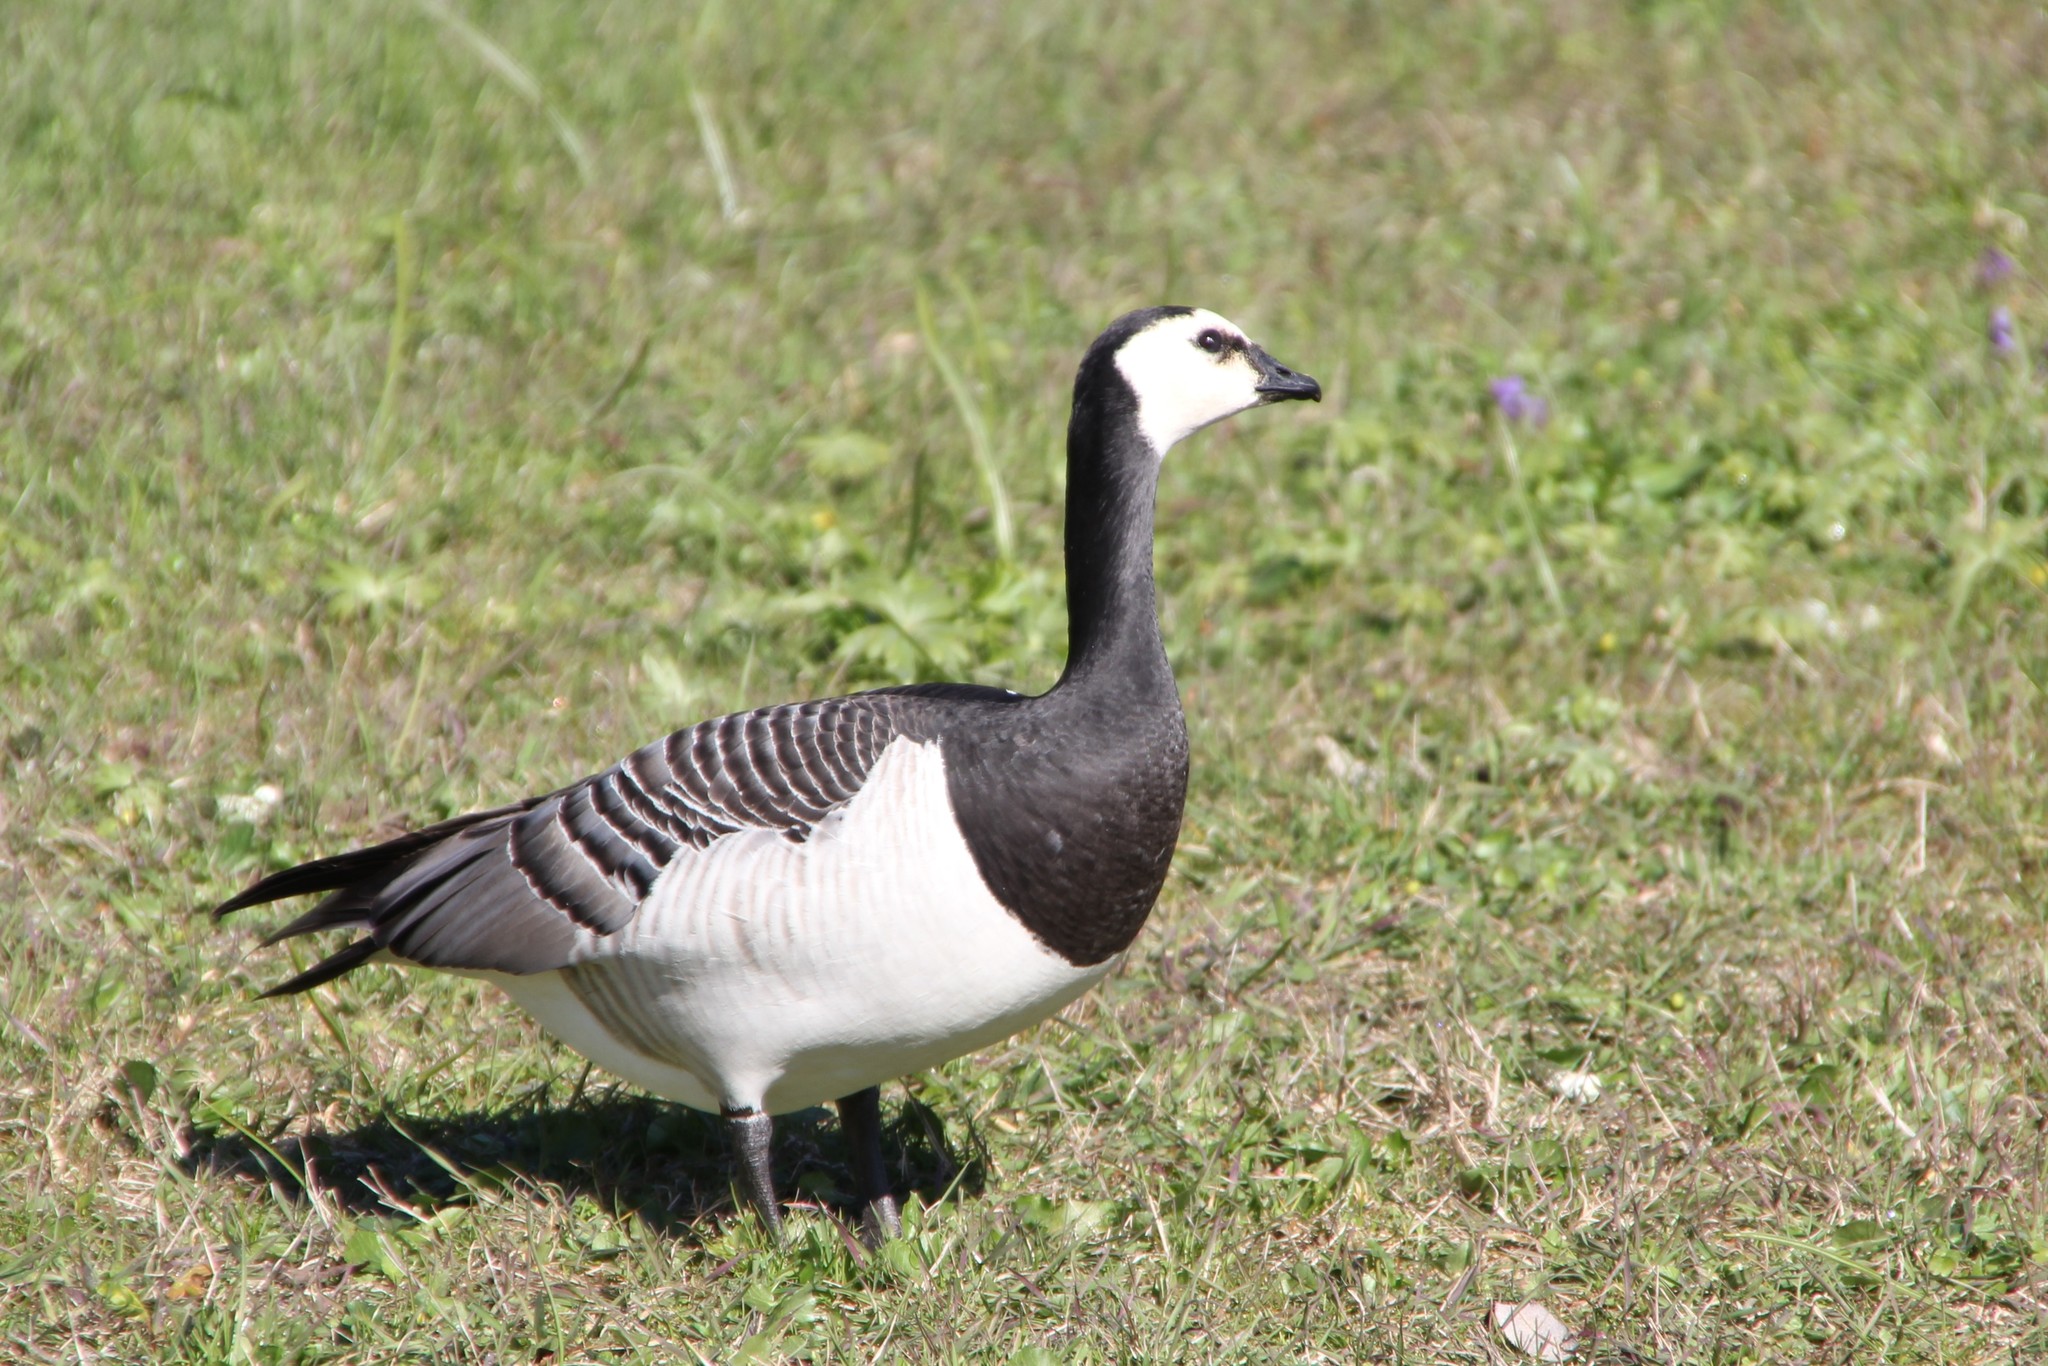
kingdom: Animalia
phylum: Chordata
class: Aves
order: Anseriformes
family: Anatidae
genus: Branta
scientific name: Branta leucopsis
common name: Barnacle goose
